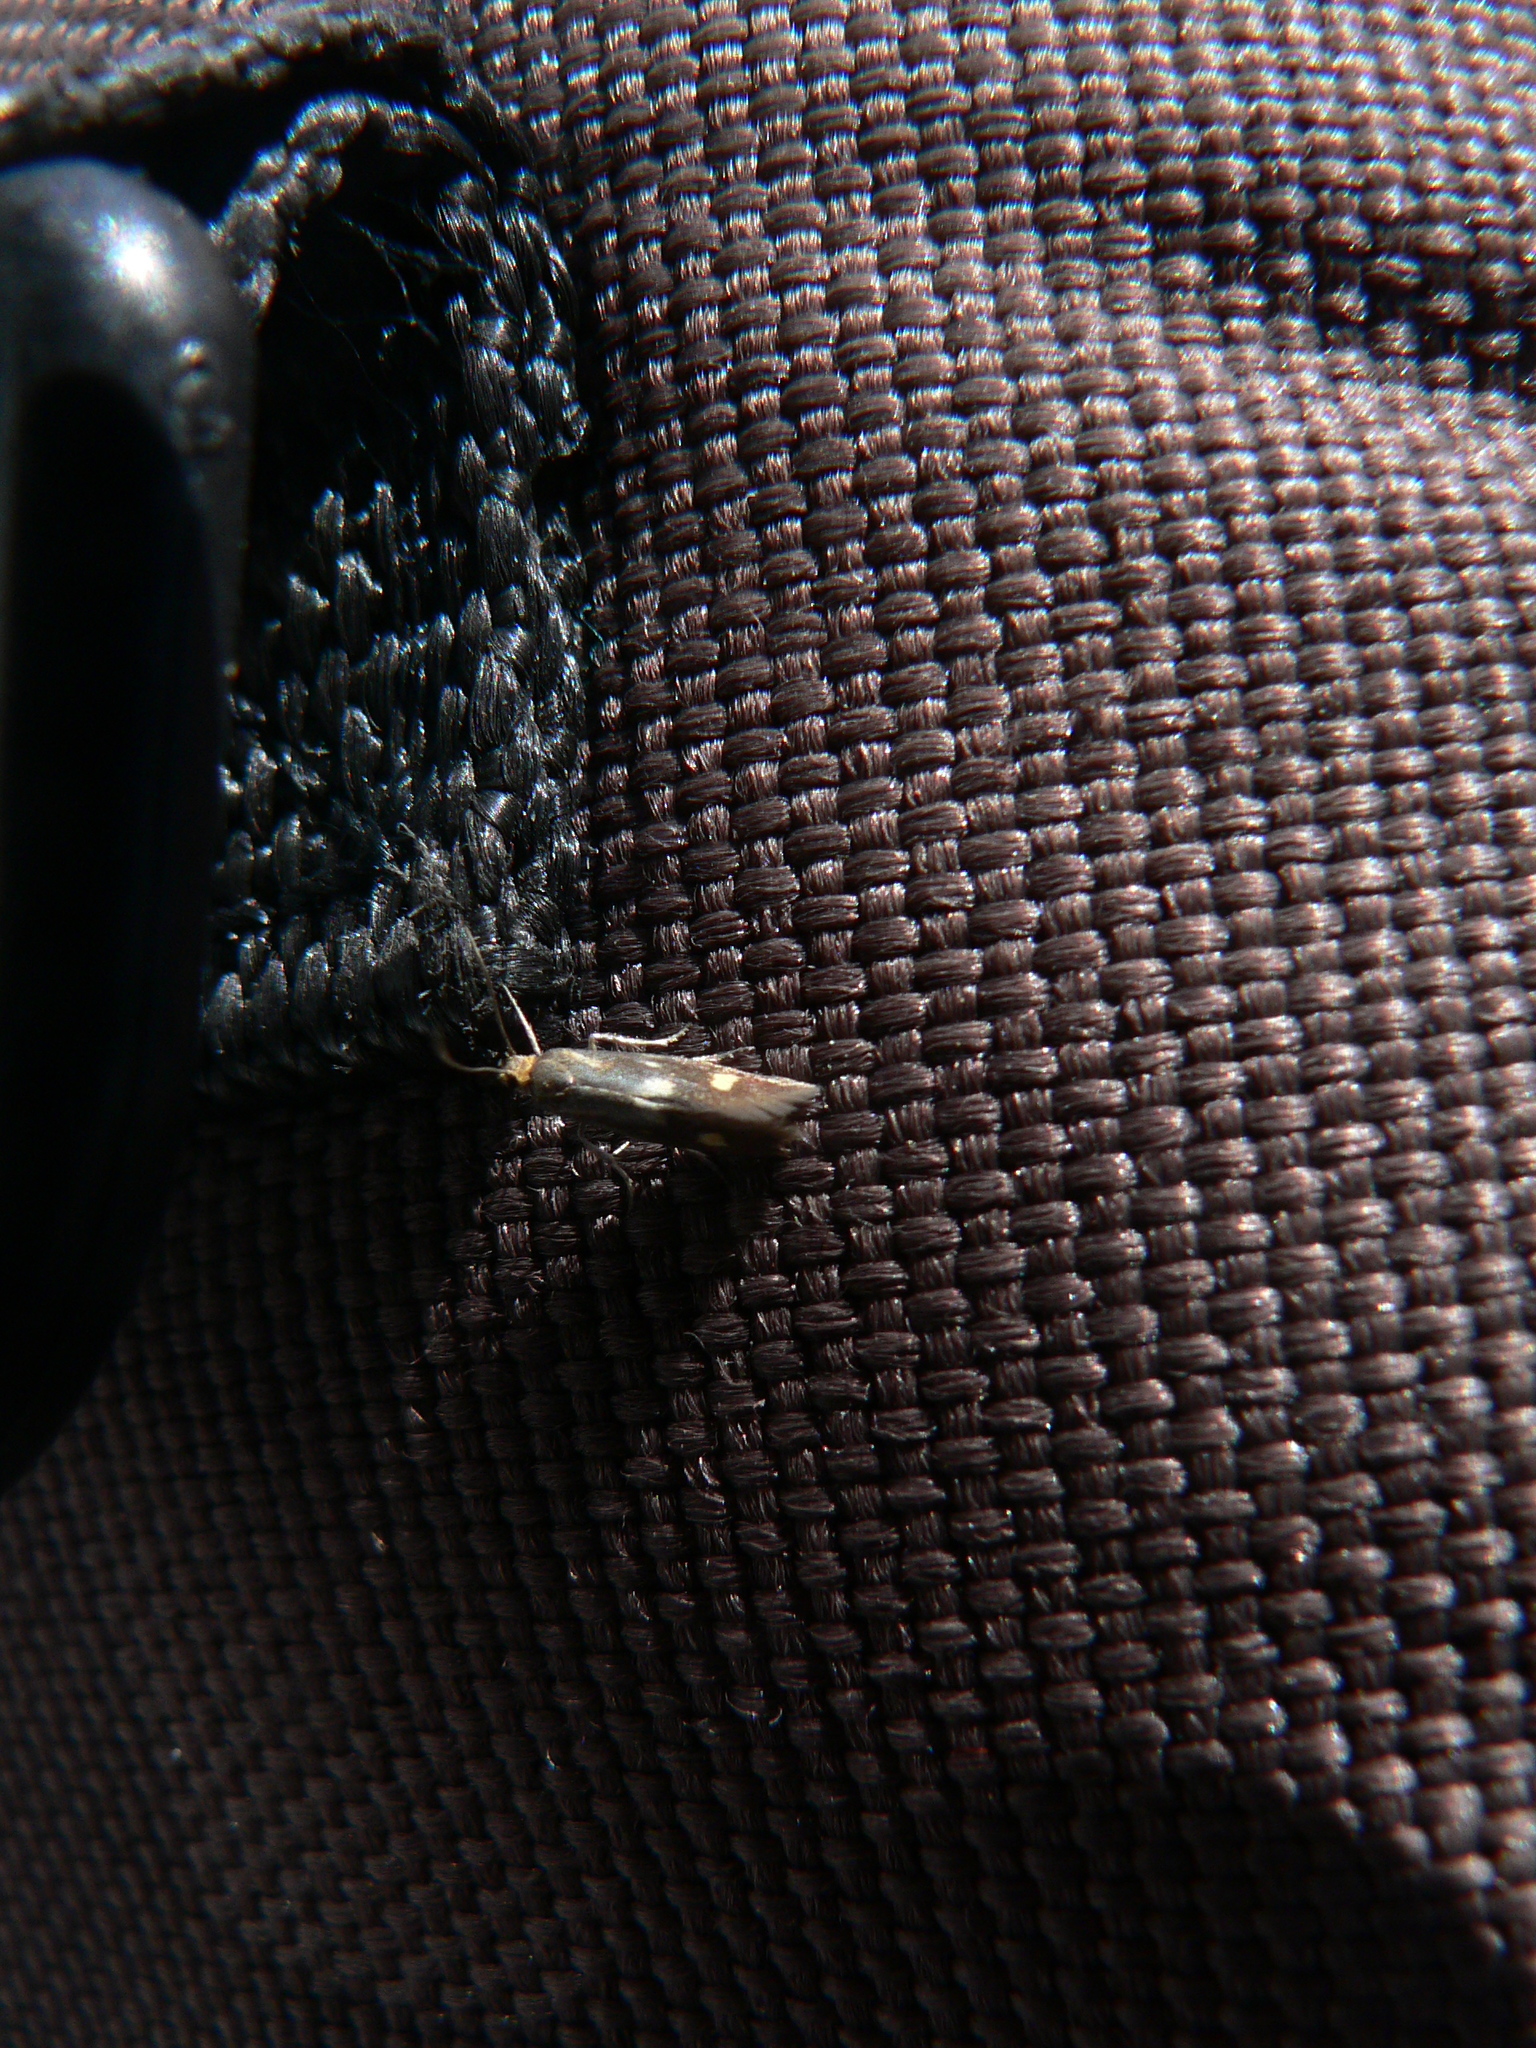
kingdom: Animalia
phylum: Arthropoda
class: Insecta
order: Lepidoptera
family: Oecophoridae
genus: Denisia
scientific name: Denisia similella
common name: Northern tubic
